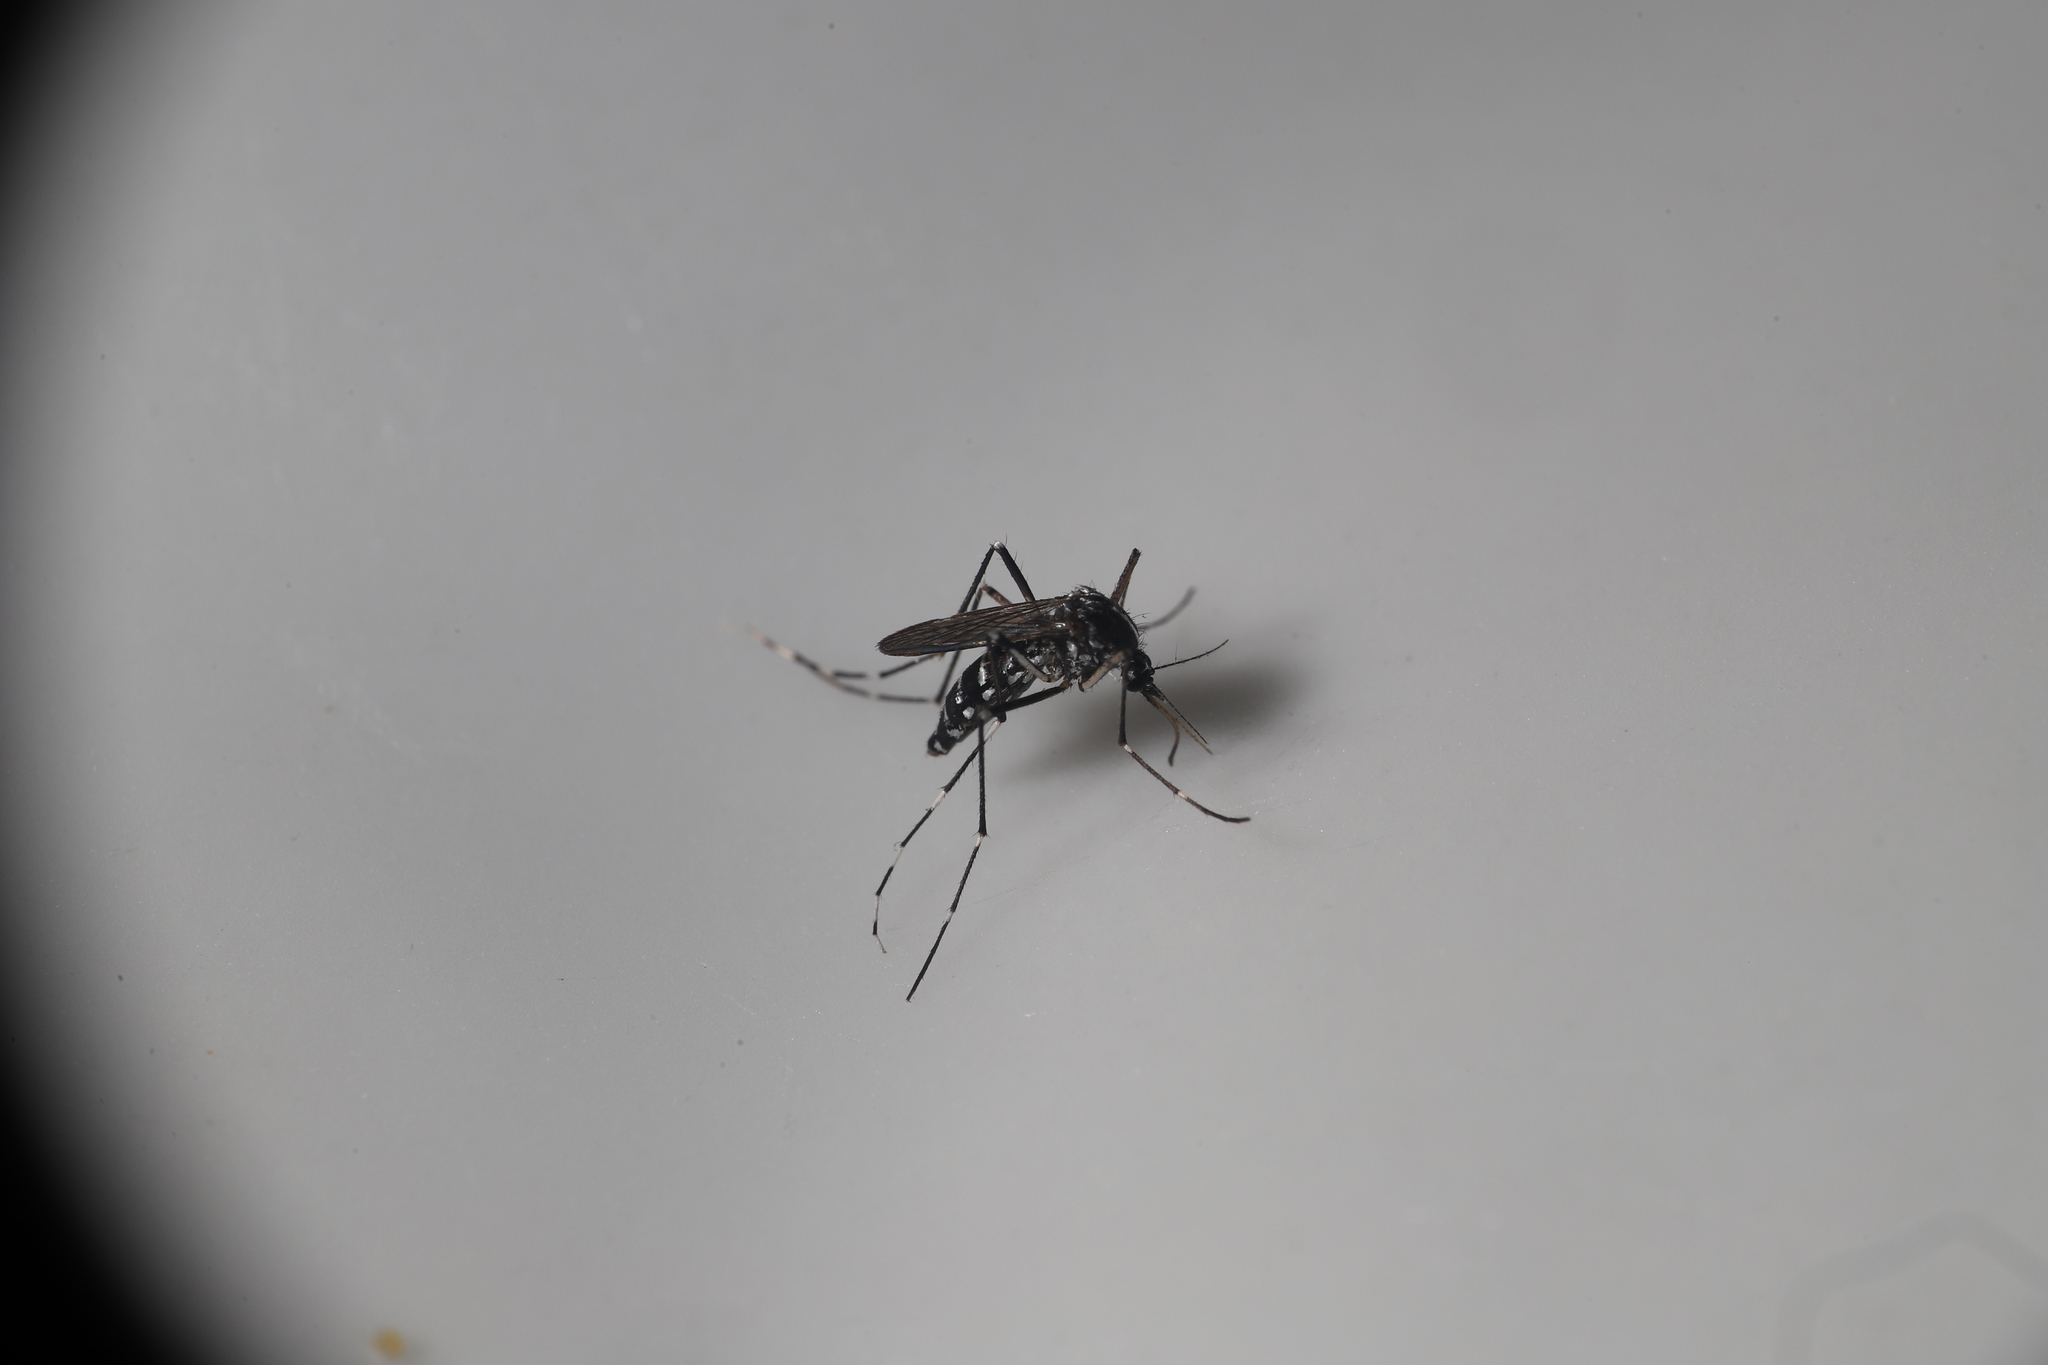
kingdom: Animalia
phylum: Arthropoda
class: Insecta
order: Diptera
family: Culicidae
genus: Aedes
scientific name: Aedes albopictus
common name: Tiger mosquito
